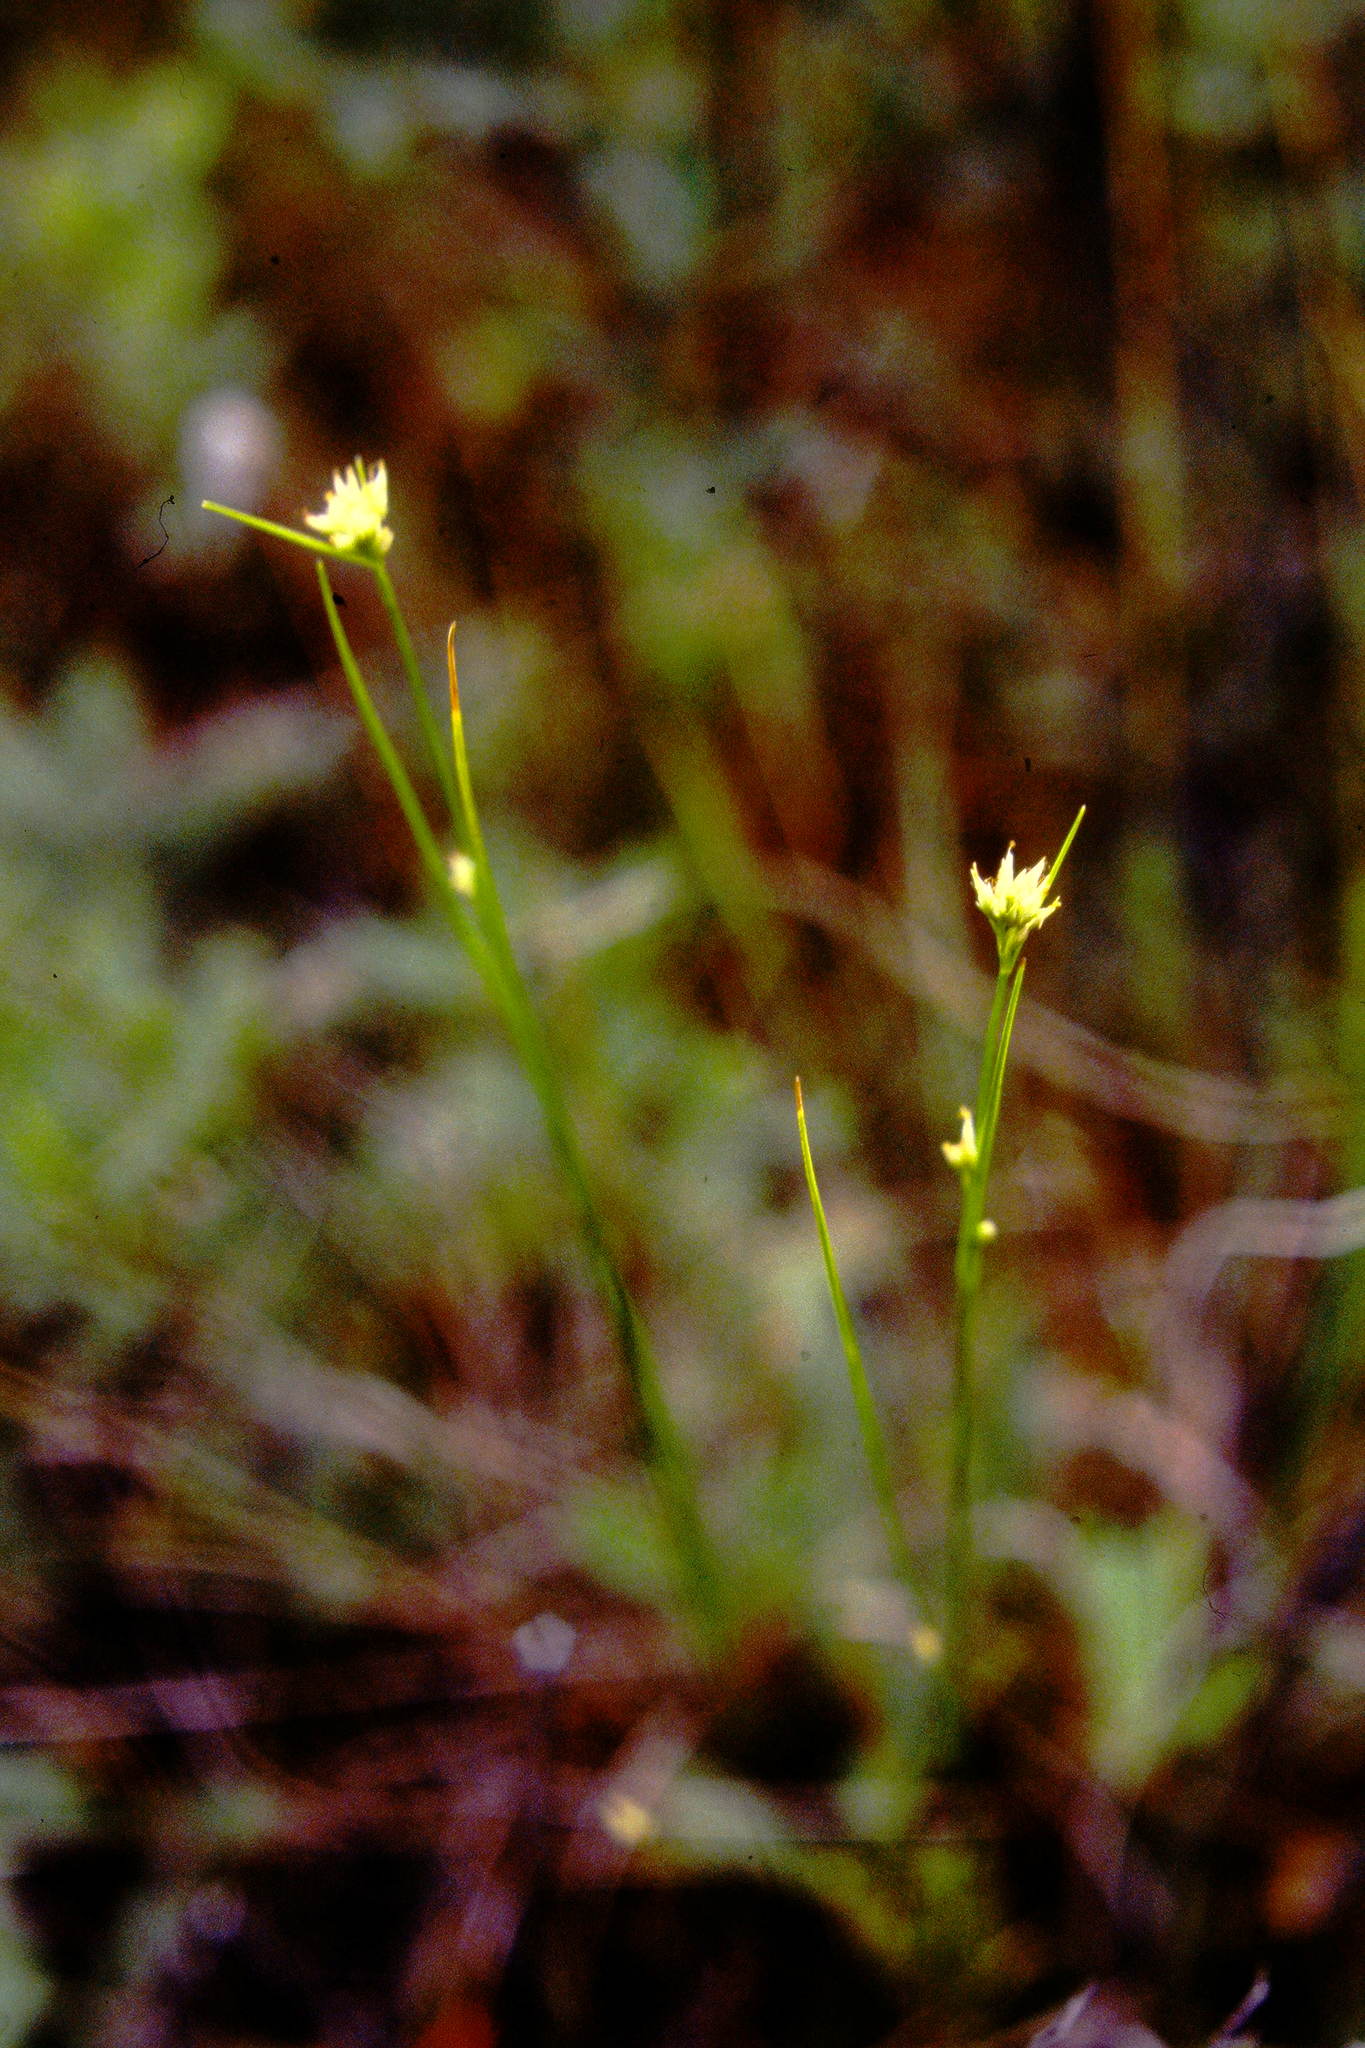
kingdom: Plantae
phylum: Tracheophyta
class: Liliopsida
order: Poales
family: Cyperaceae
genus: Rhynchospora
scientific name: Rhynchospora alba
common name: White beak-sedge
